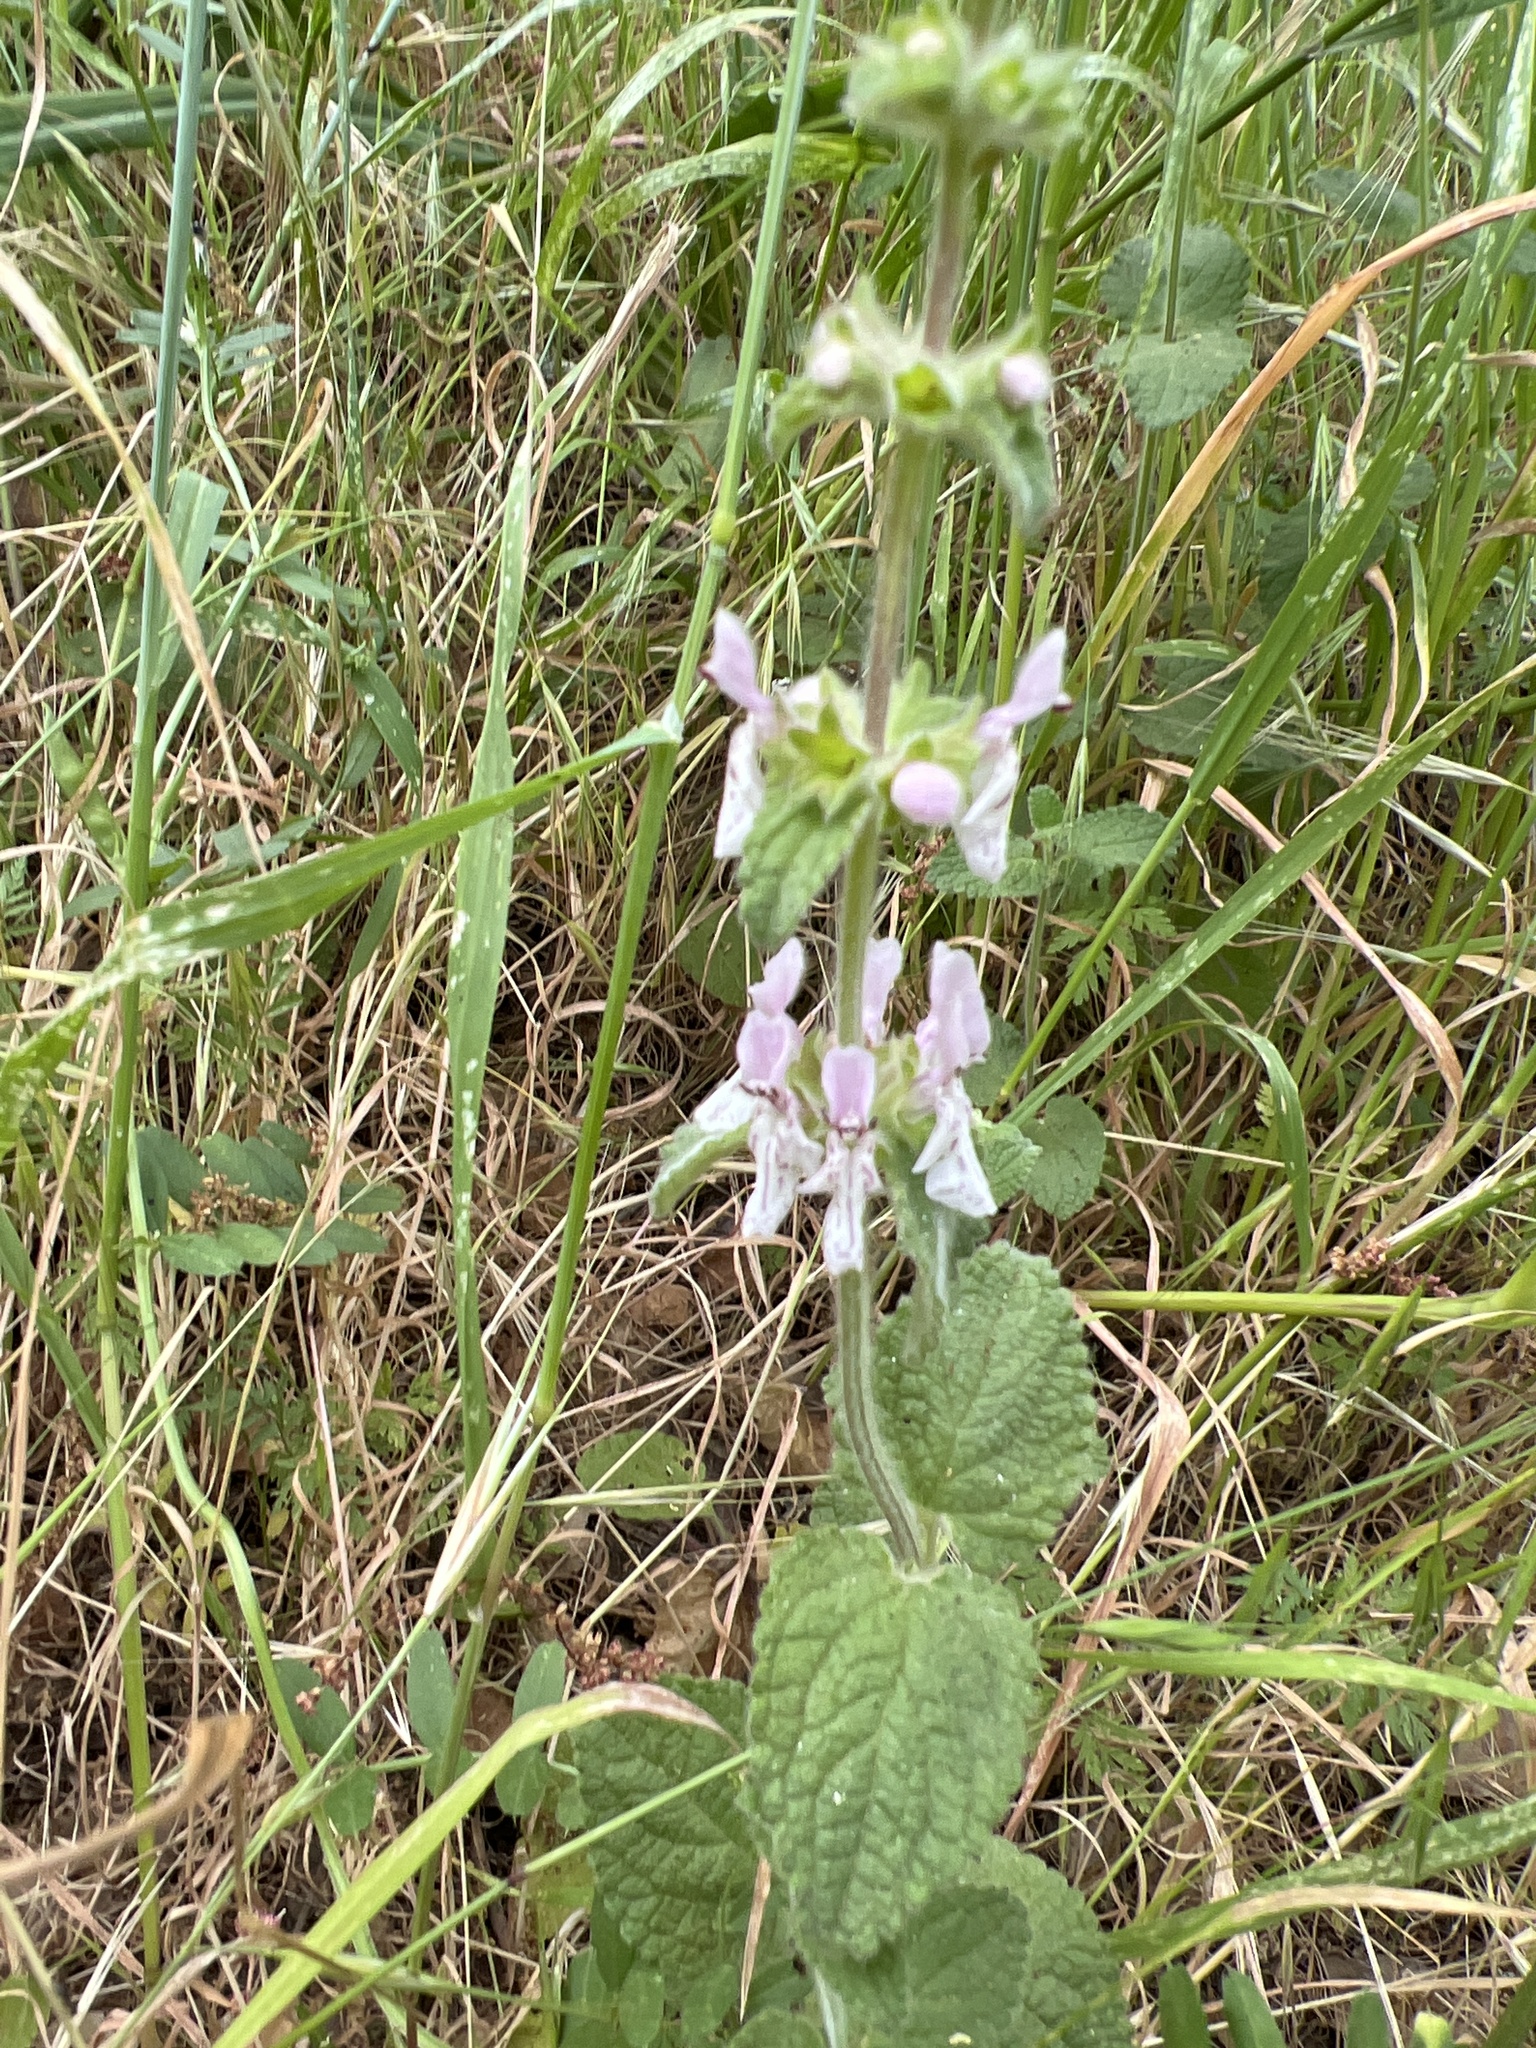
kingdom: Plantae
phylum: Tracheophyta
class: Magnoliopsida
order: Lamiales
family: Lamiaceae
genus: Stachys
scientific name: Stachys rigida
